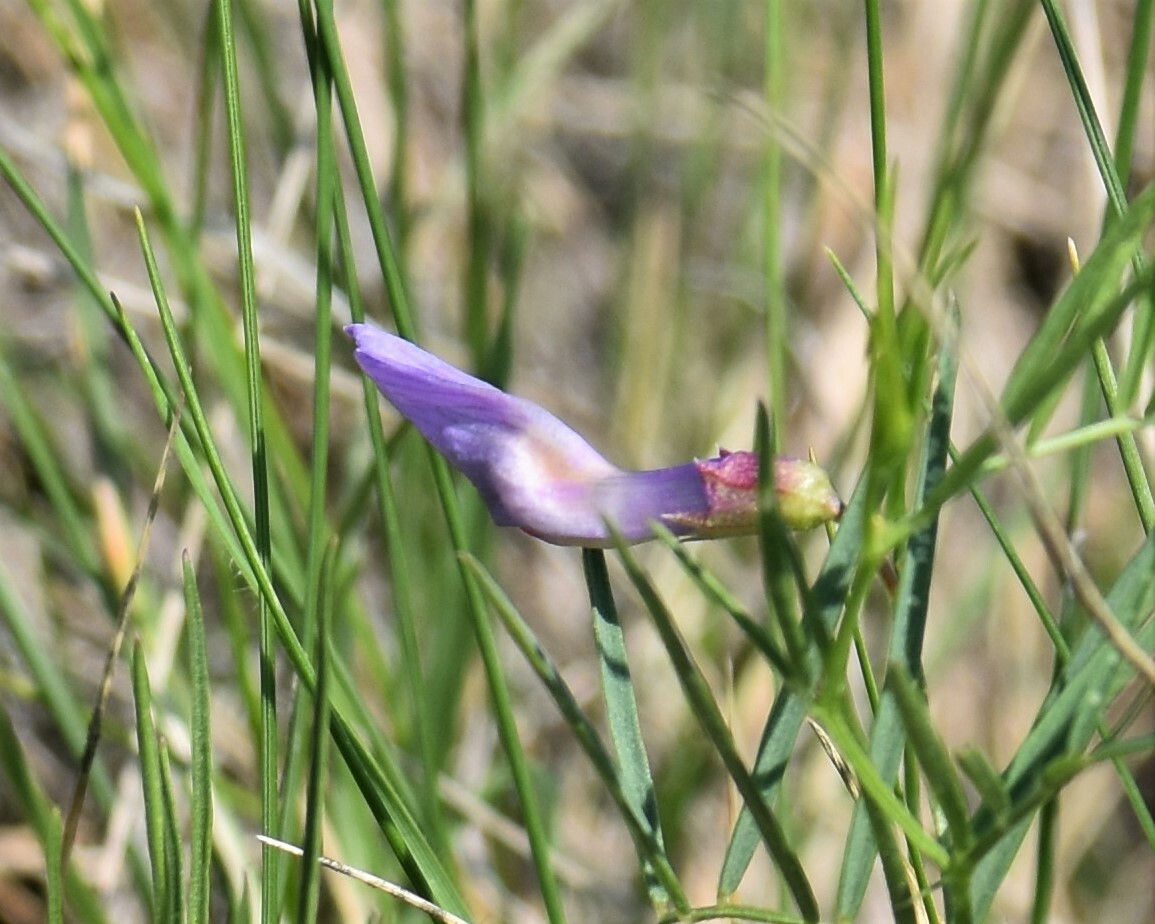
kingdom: Plantae
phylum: Tracheophyta
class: Magnoliopsida
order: Fabales
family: Fabaceae
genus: Vicia
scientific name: Vicia americana
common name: American vetch
